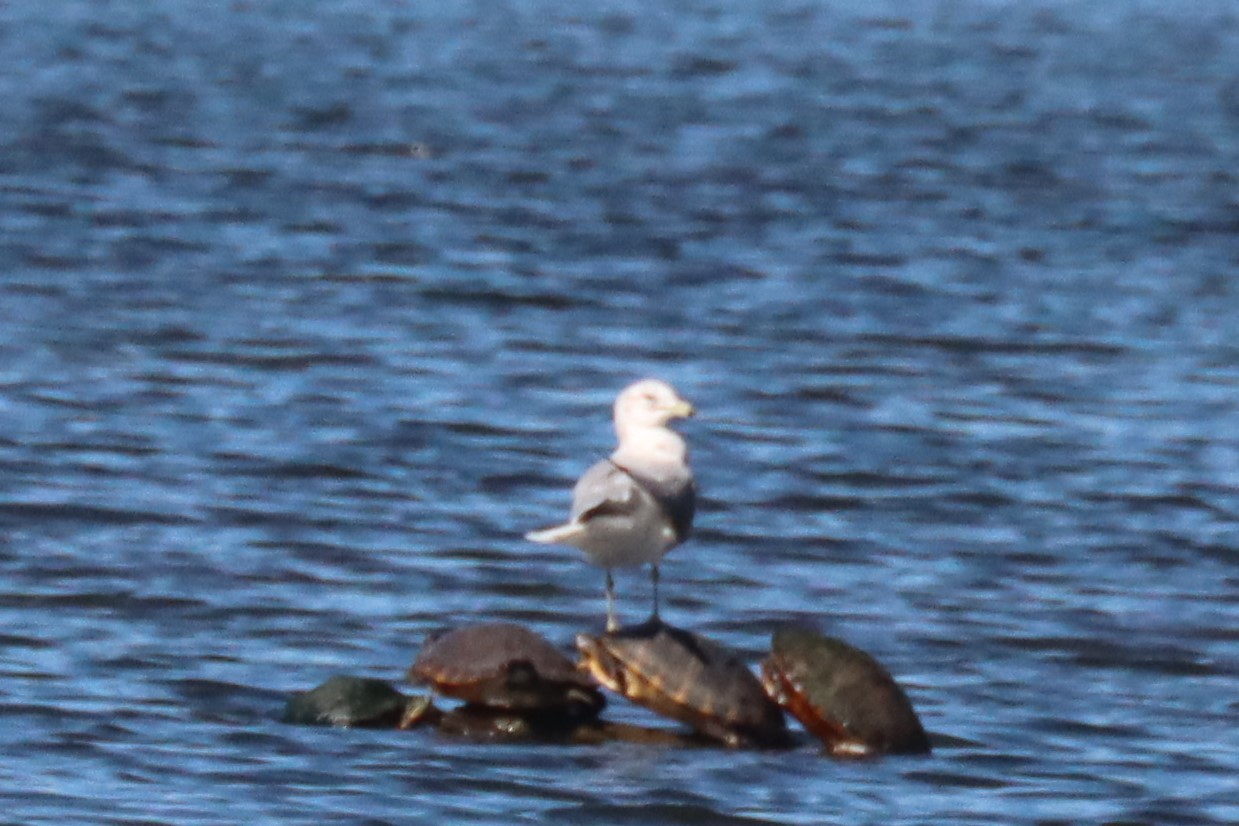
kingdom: Animalia
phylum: Chordata
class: Aves
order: Charadriiformes
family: Laridae
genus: Larus
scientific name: Larus delawarensis
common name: Ring-billed gull
